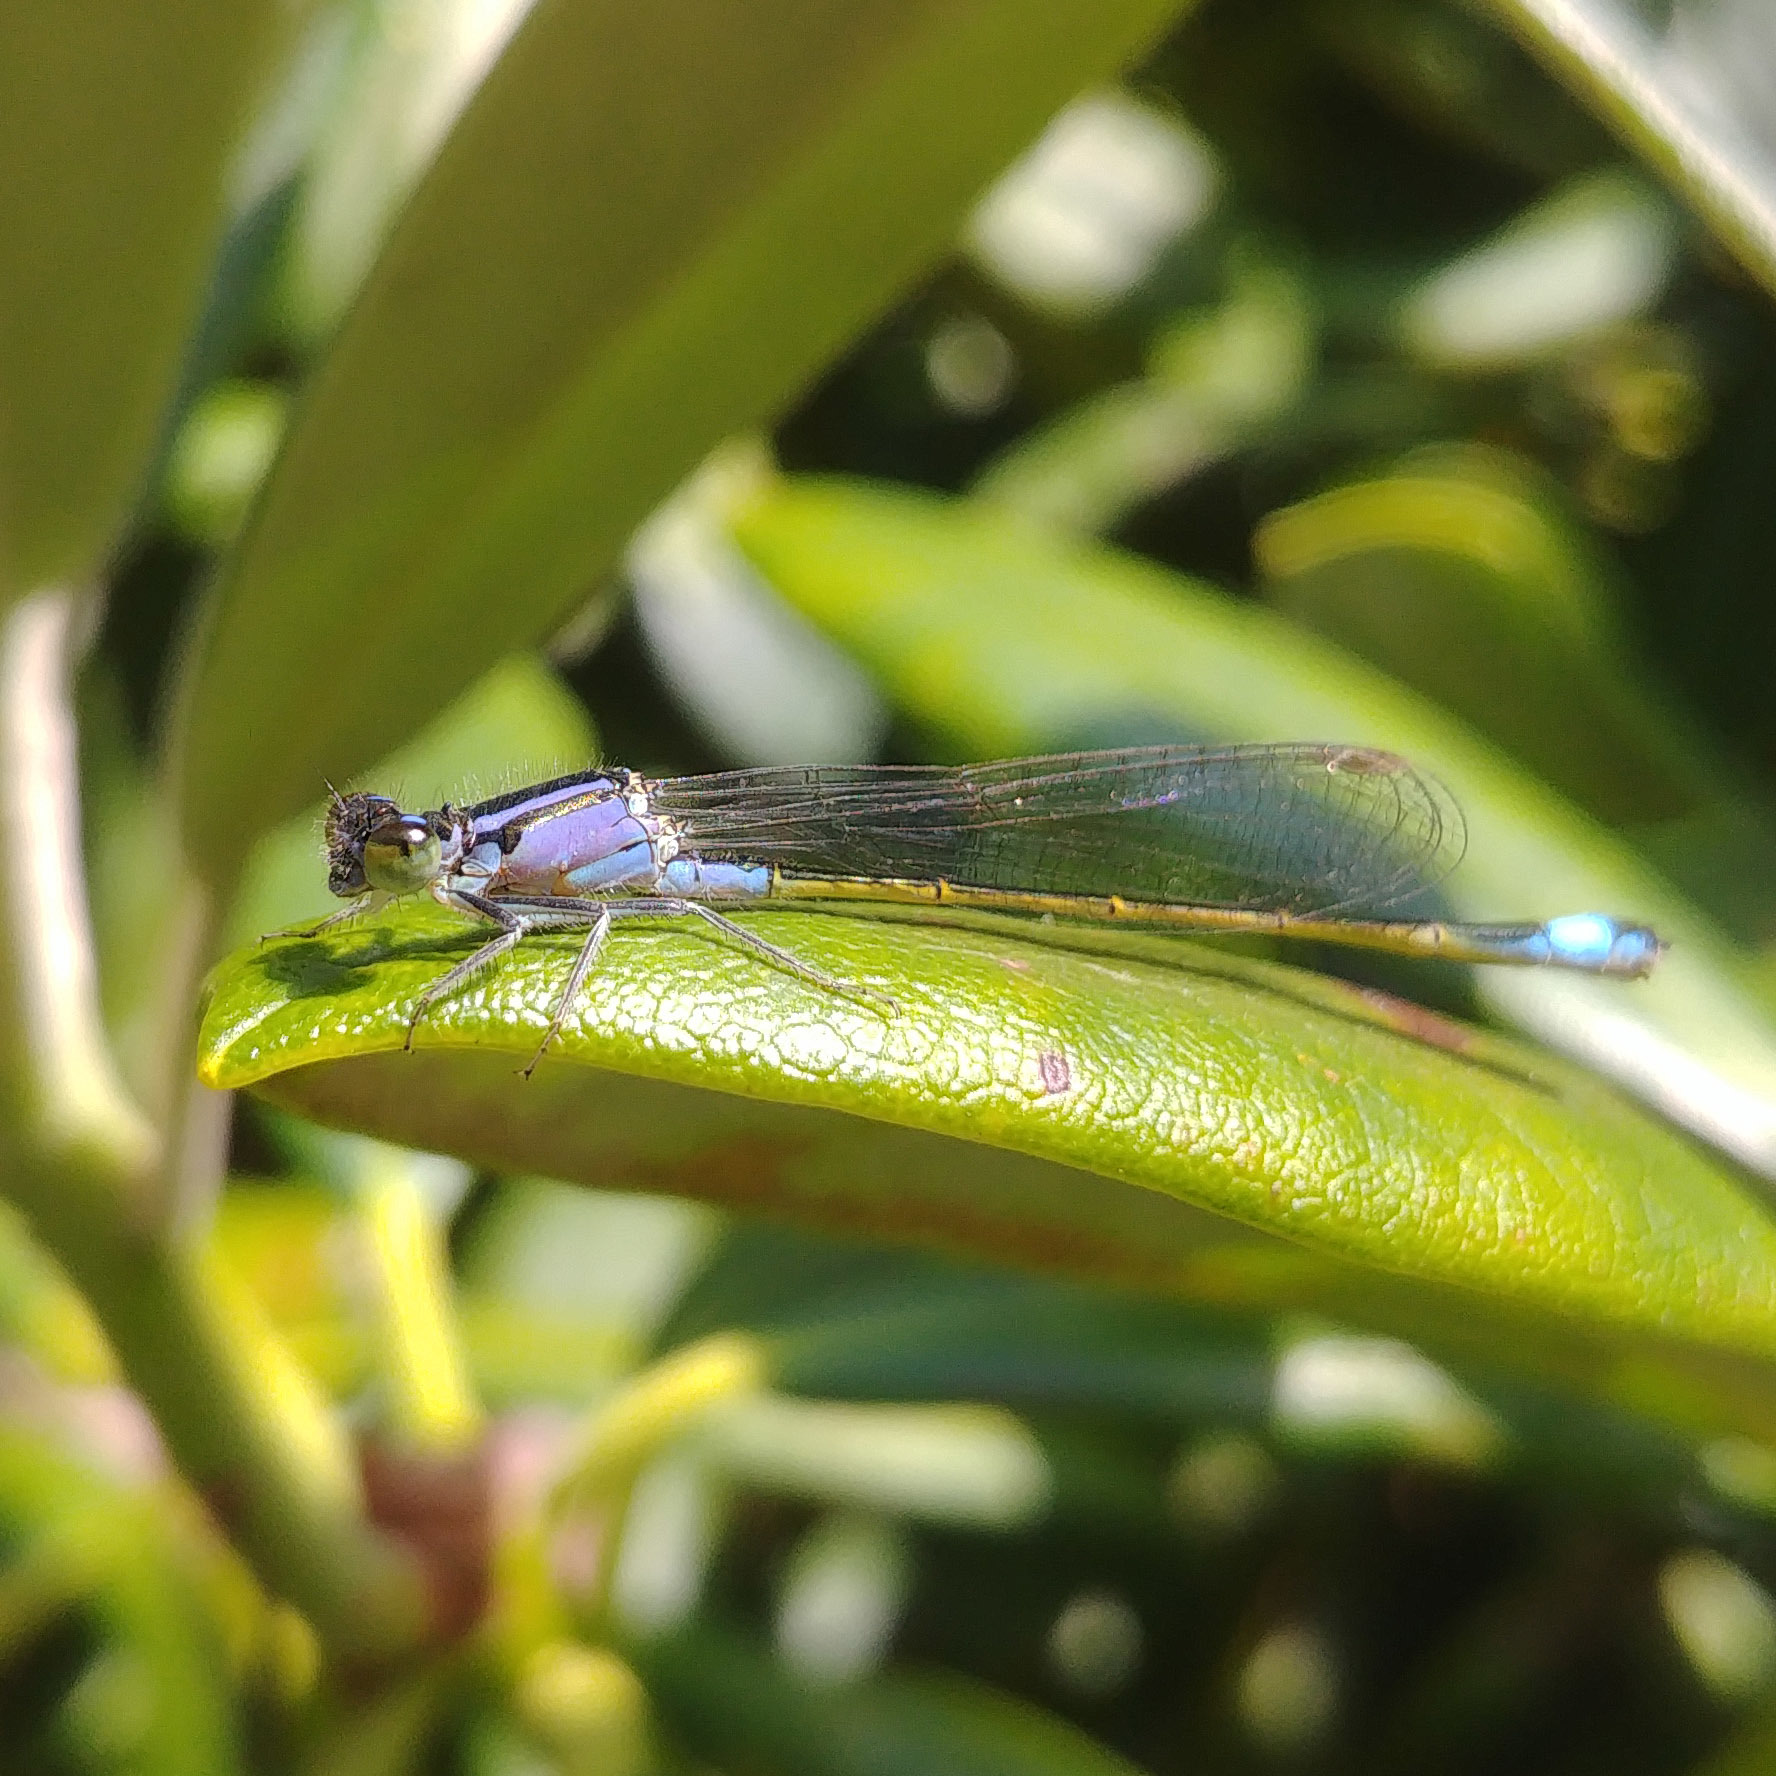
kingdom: Animalia
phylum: Arthropoda
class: Insecta
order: Odonata
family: Coenagrionidae
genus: Ischnura
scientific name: Ischnura elegans
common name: Blue-tailed damselfly
